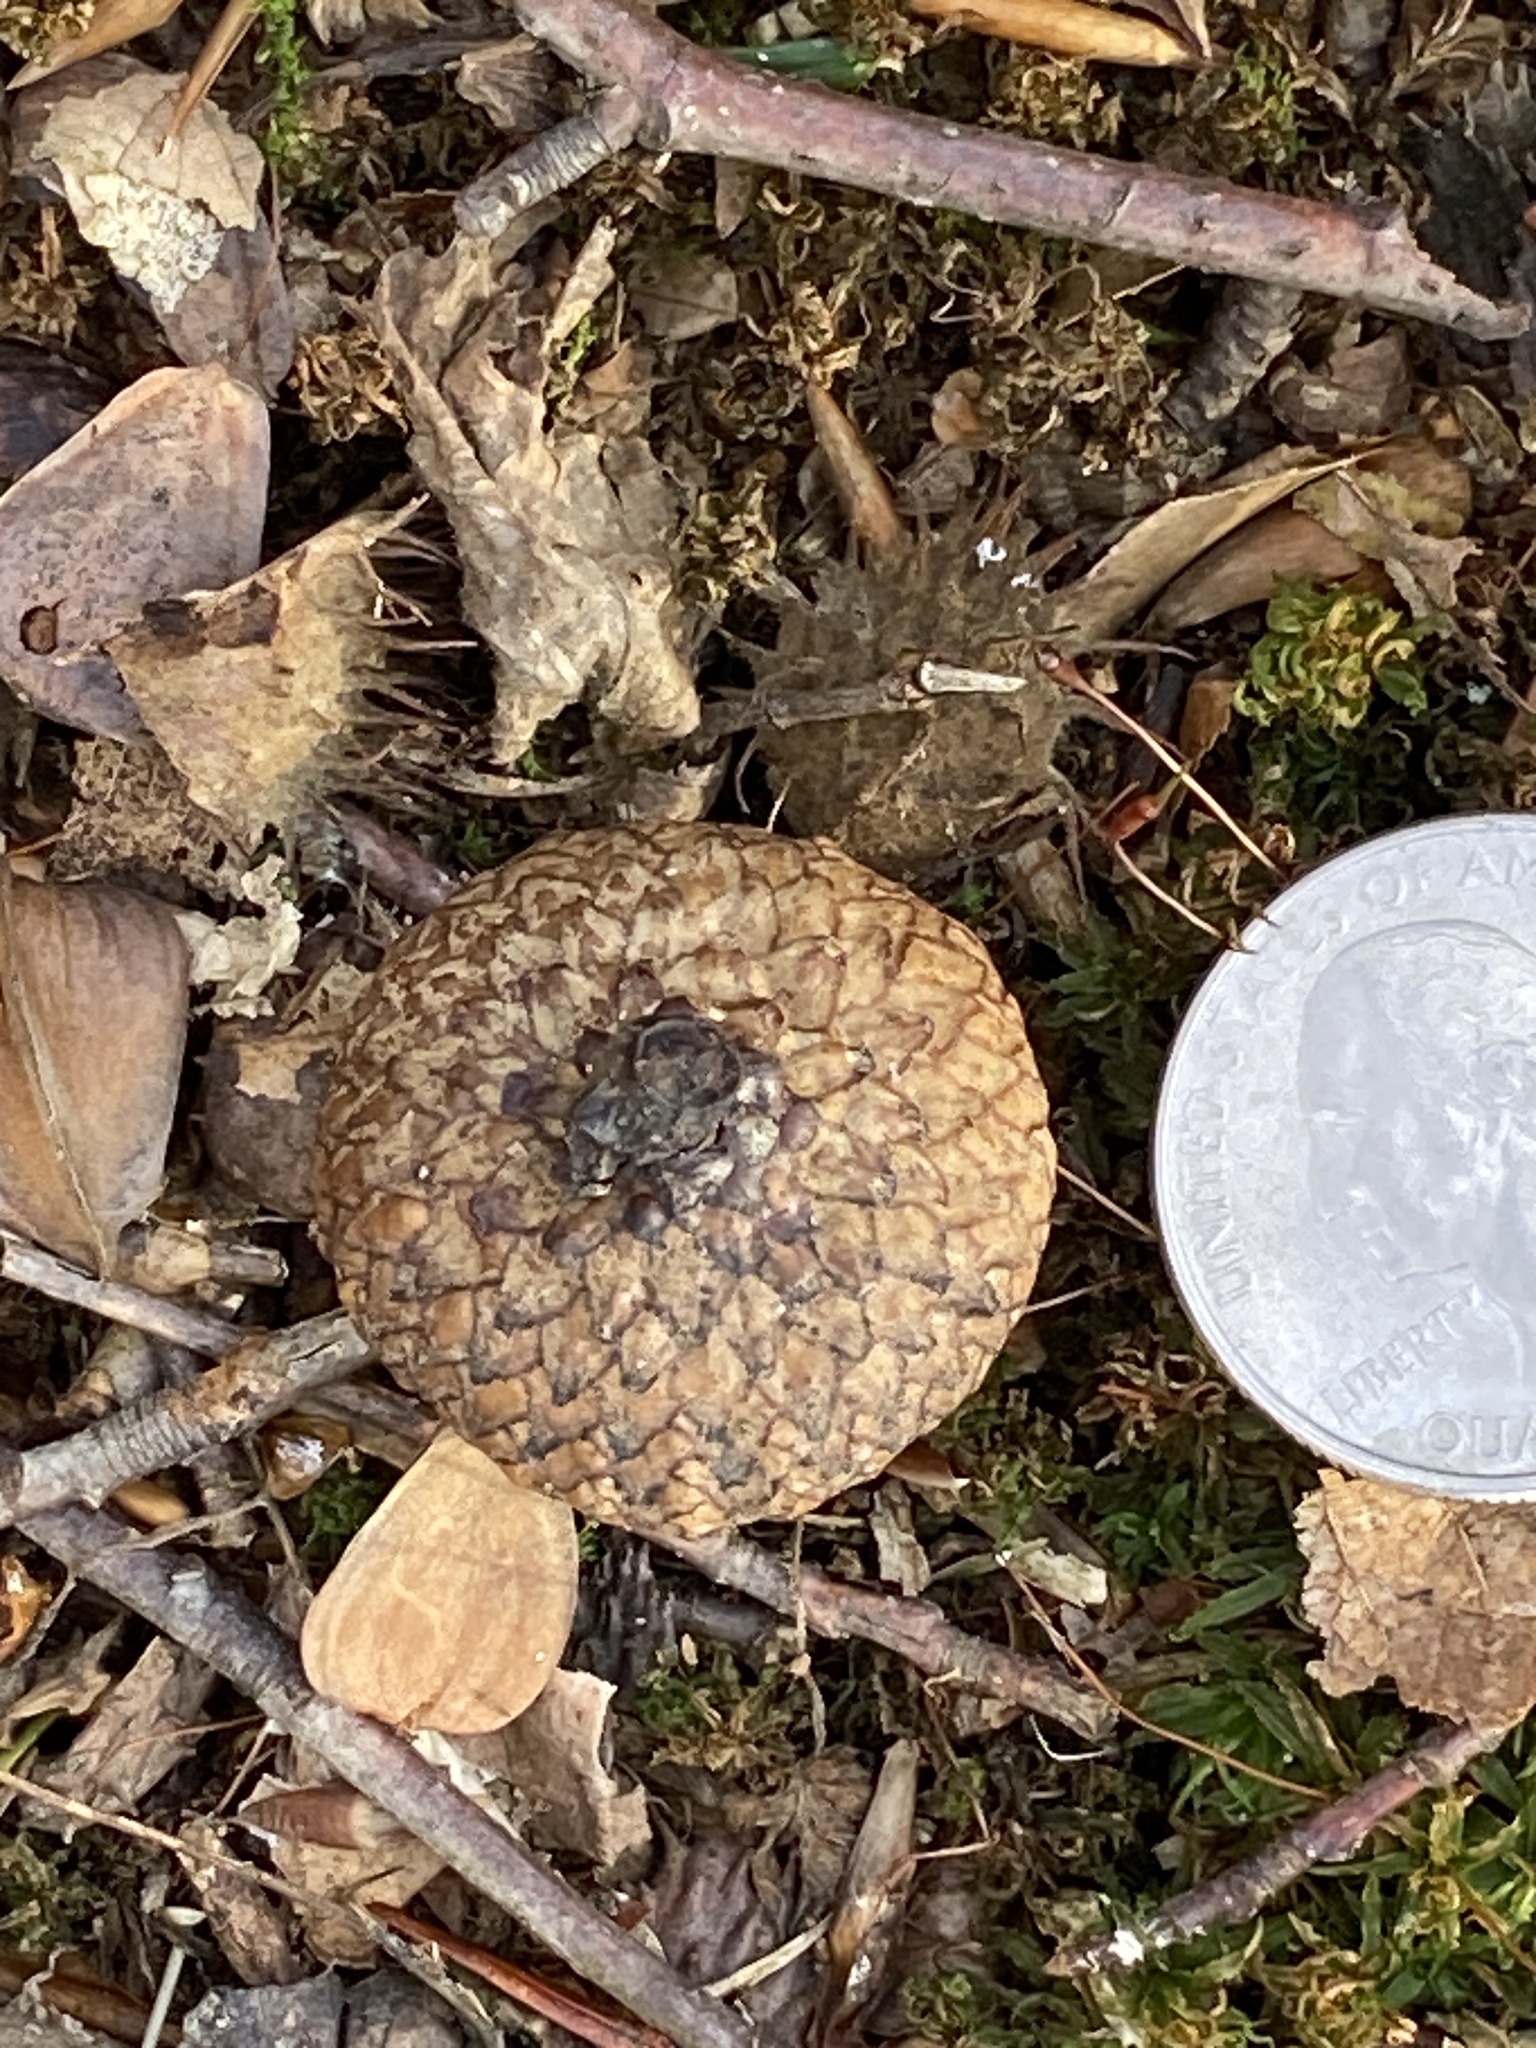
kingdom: Plantae
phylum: Tracheophyta
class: Magnoliopsida
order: Fagales
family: Fagaceae
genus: Quercus
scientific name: Quercus rubra
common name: Red oak
